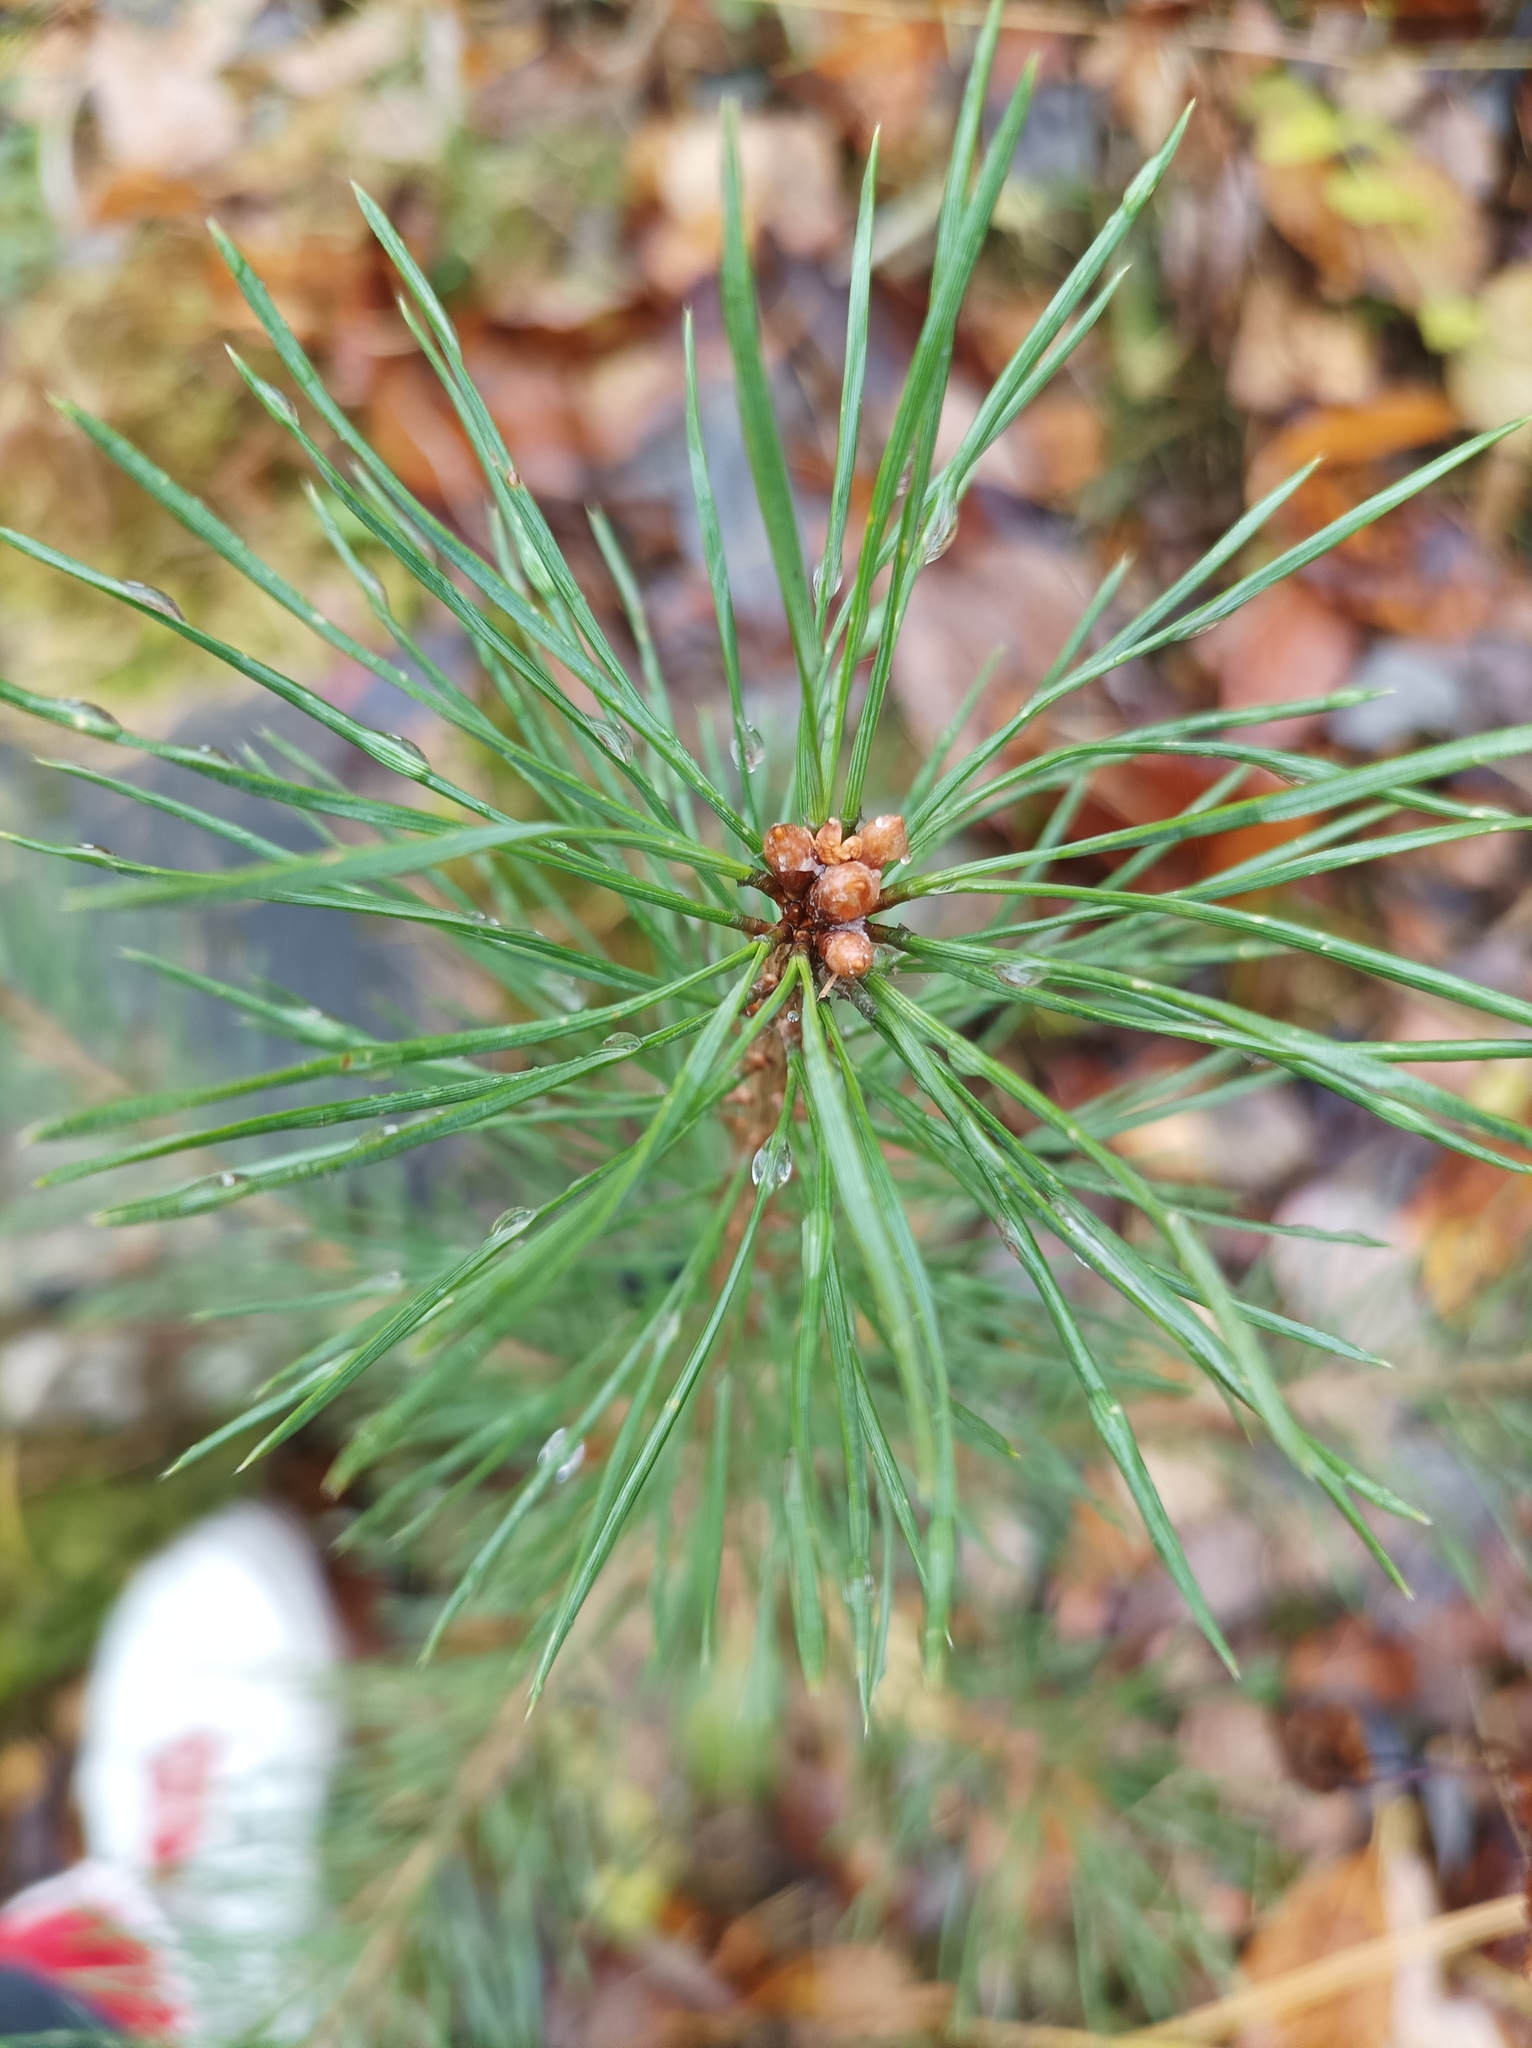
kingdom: Plantae
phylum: Tracheophyta
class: Pinopsida
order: Pinales
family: Pinaceae
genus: Pinus
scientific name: Pinus sylvestris
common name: Scots pine
